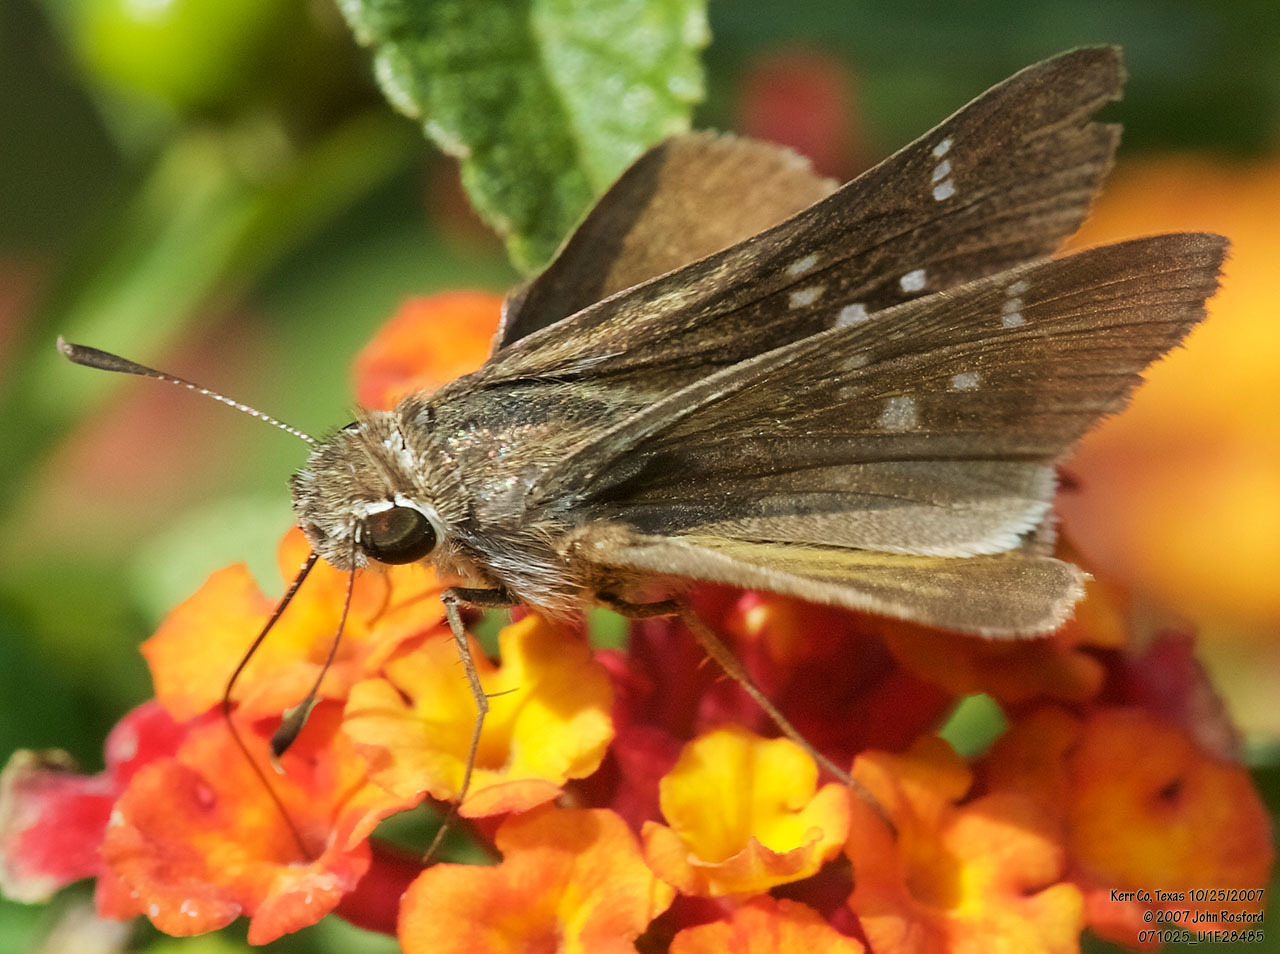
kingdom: Animalia
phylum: Arthropoda
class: Insecta
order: Lepidoptera
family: Hesperiidae
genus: Lerodea
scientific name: Lerodea eufala
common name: Eufala skipper
